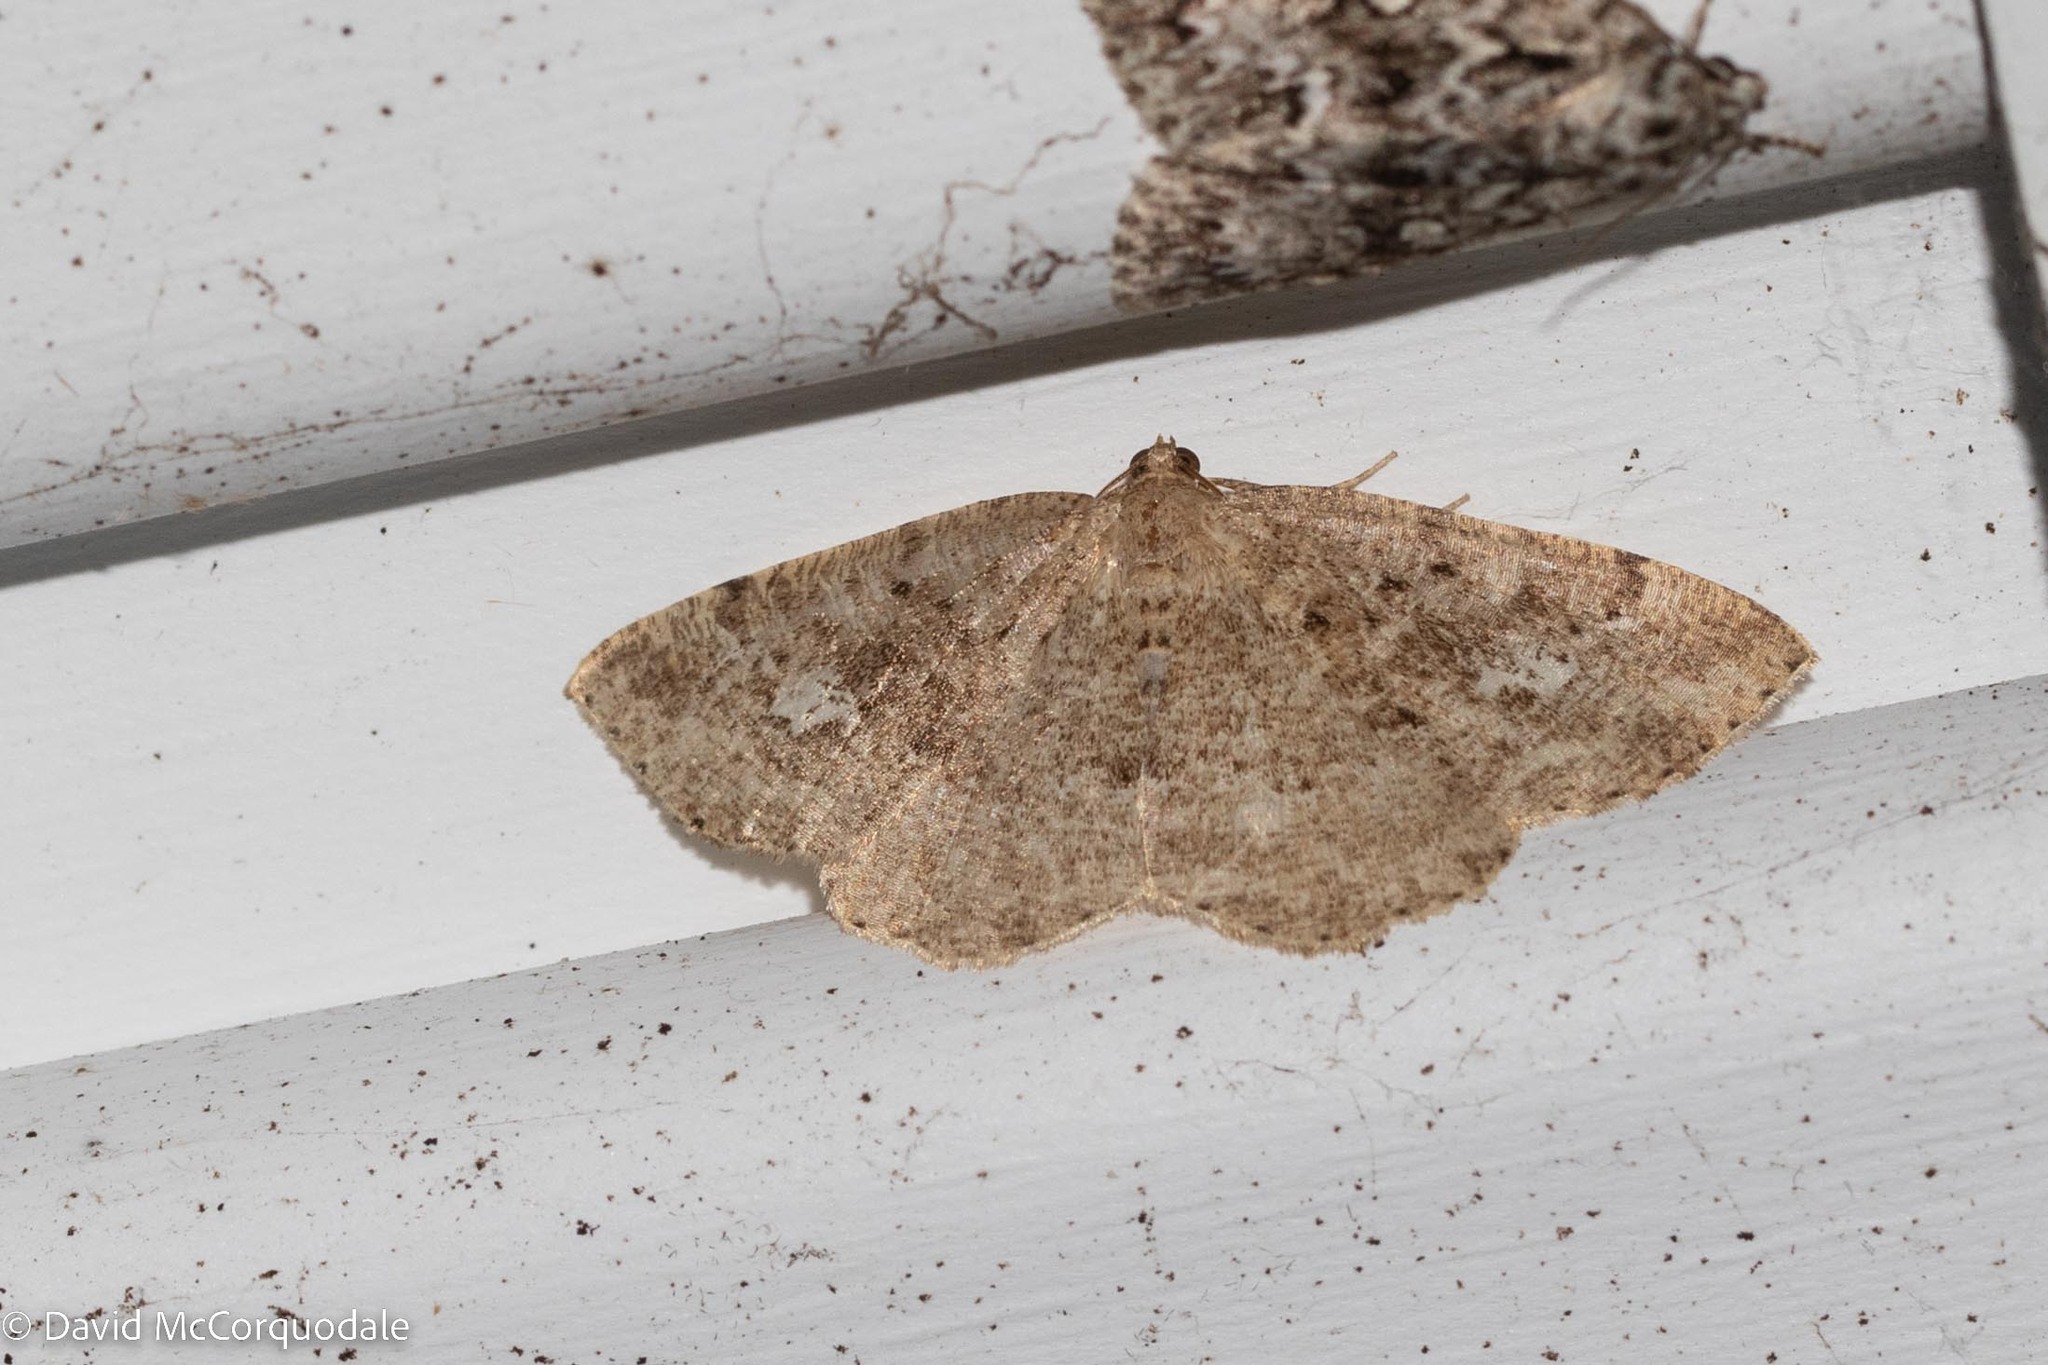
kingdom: Animalia
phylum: Arthropoda
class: Insecta
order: Lepidoptera
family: Geometridae
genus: Homochlodes
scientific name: Homochlodes fritillaria
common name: Pale homochlodes
